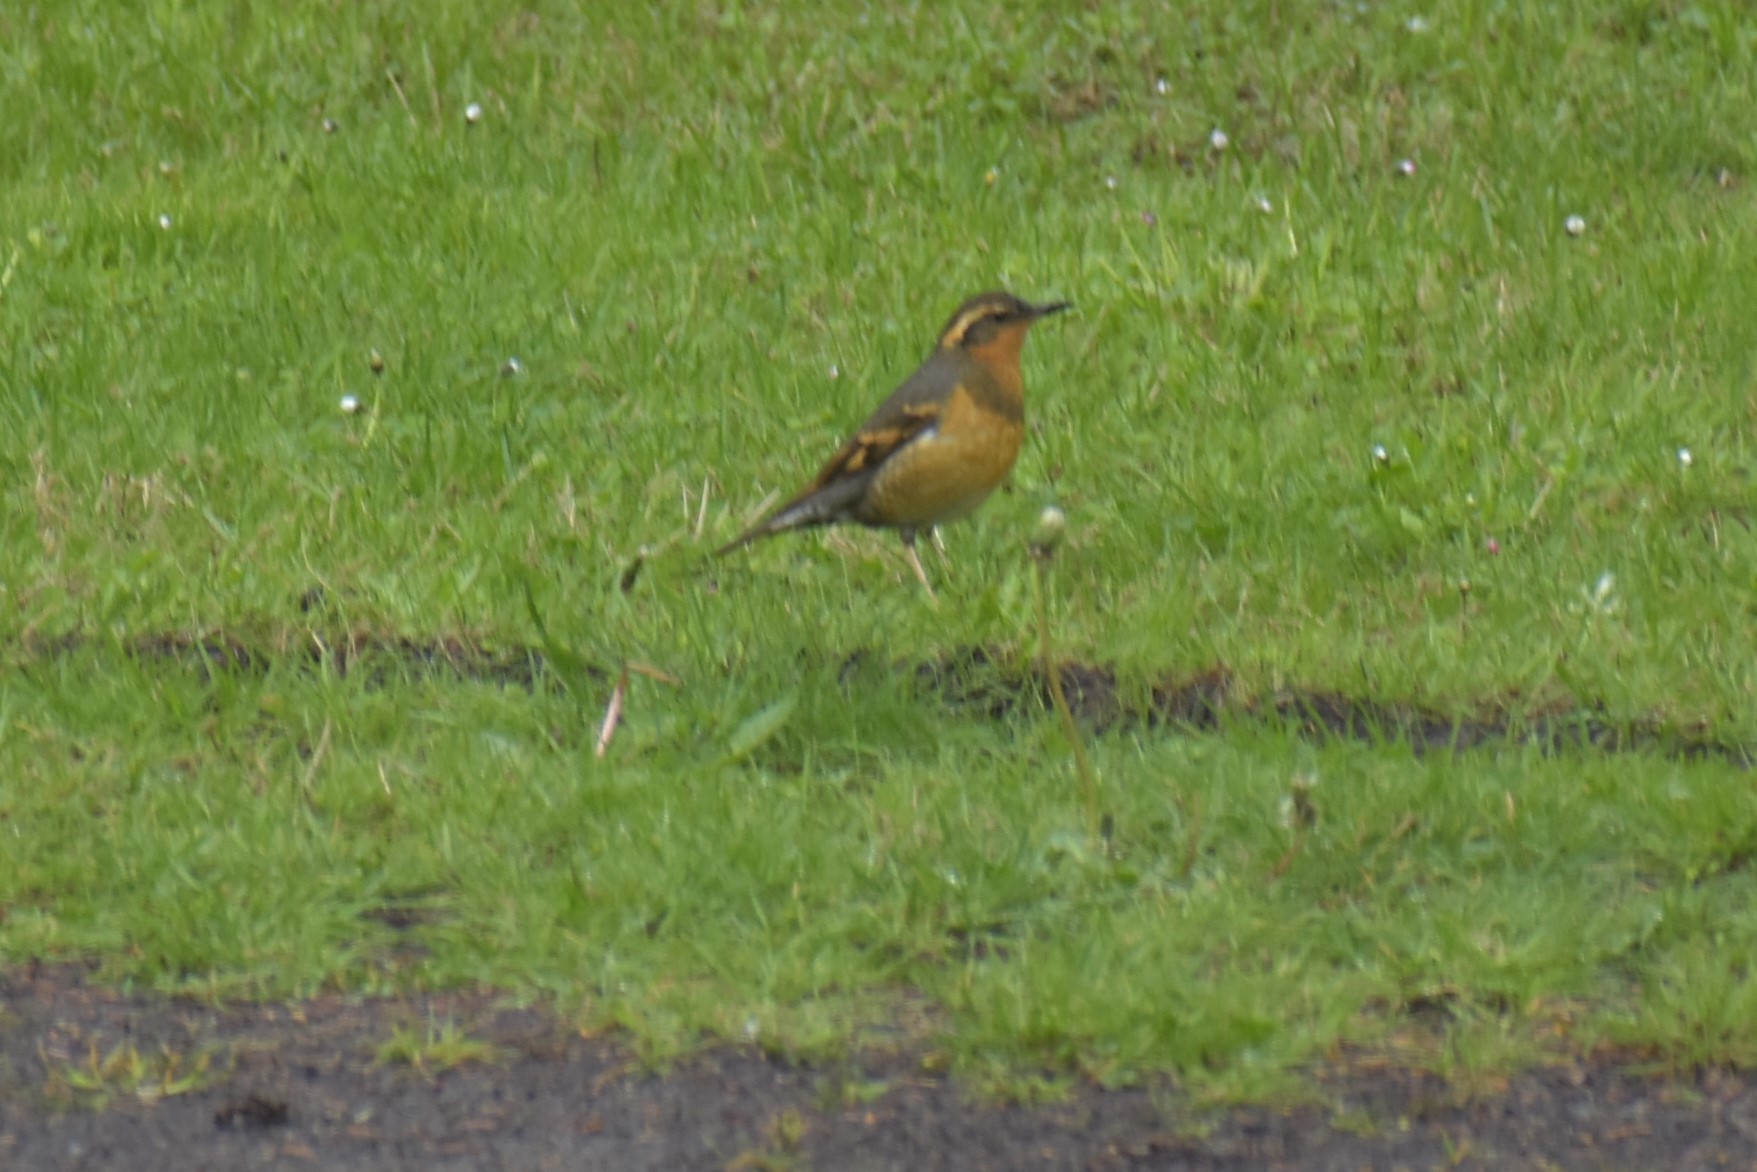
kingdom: Animalia
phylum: Chordata
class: Aves
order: Passeriformes
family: Turdidae
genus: Ixoreus
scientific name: Ixoreus naevius
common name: Varied thrush
